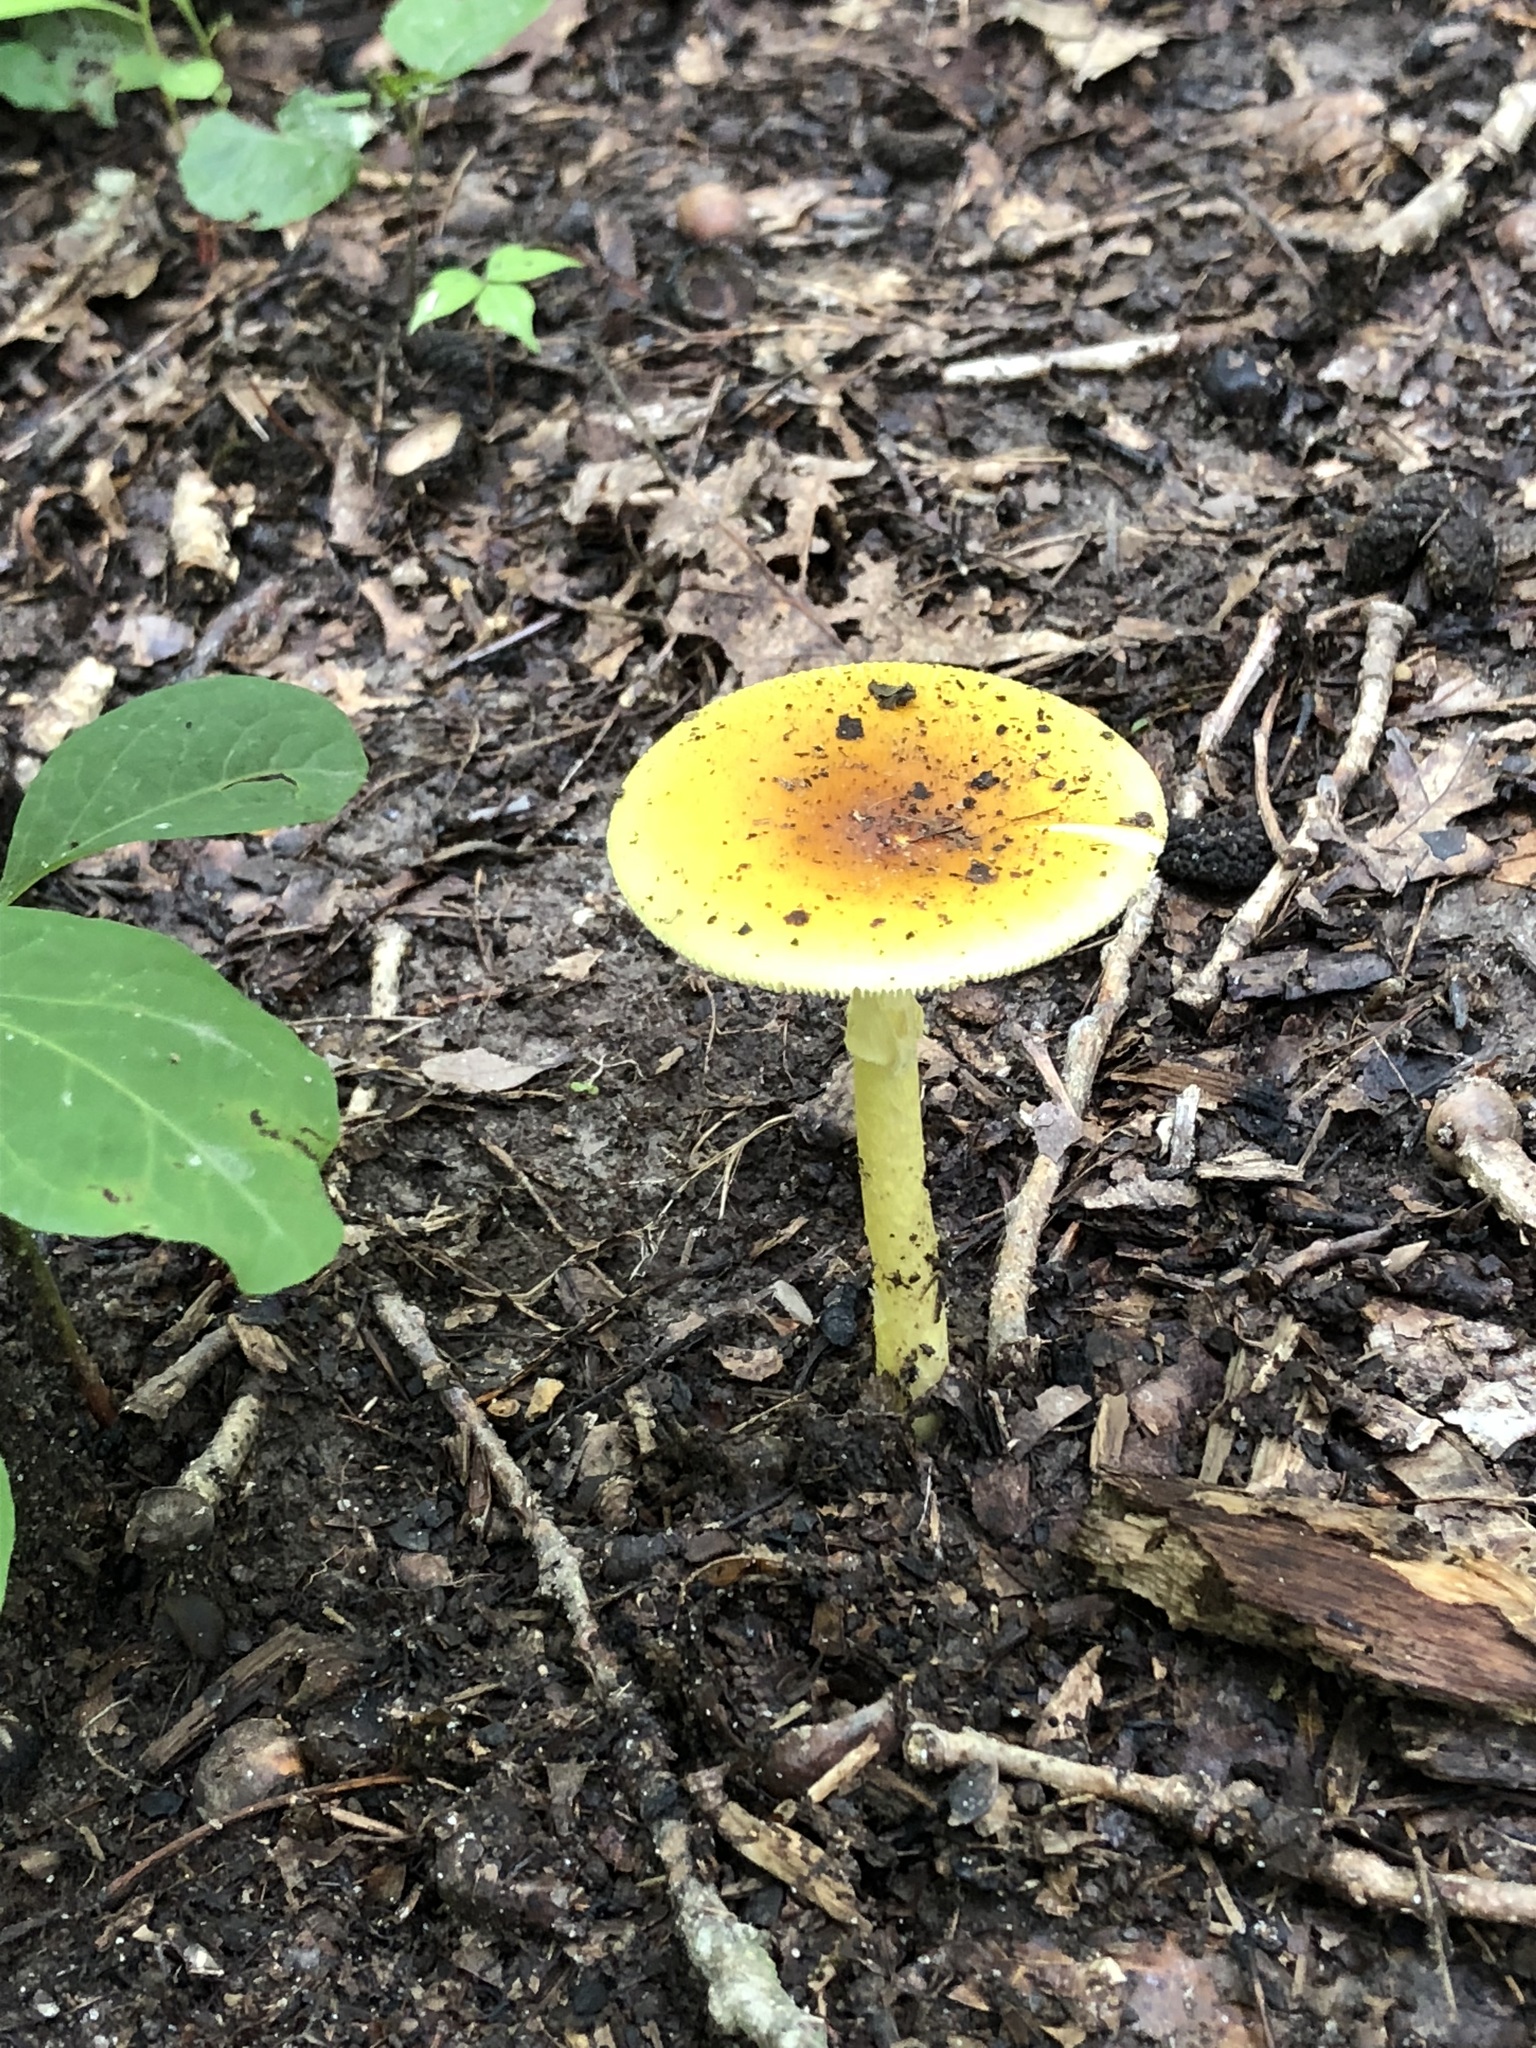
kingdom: Fungi
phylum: Basidiomycota
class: Agaricomycetes
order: Agaricales
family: Amanitaceae
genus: Amanita
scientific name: Amanita flavoconia
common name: Yellow patches
